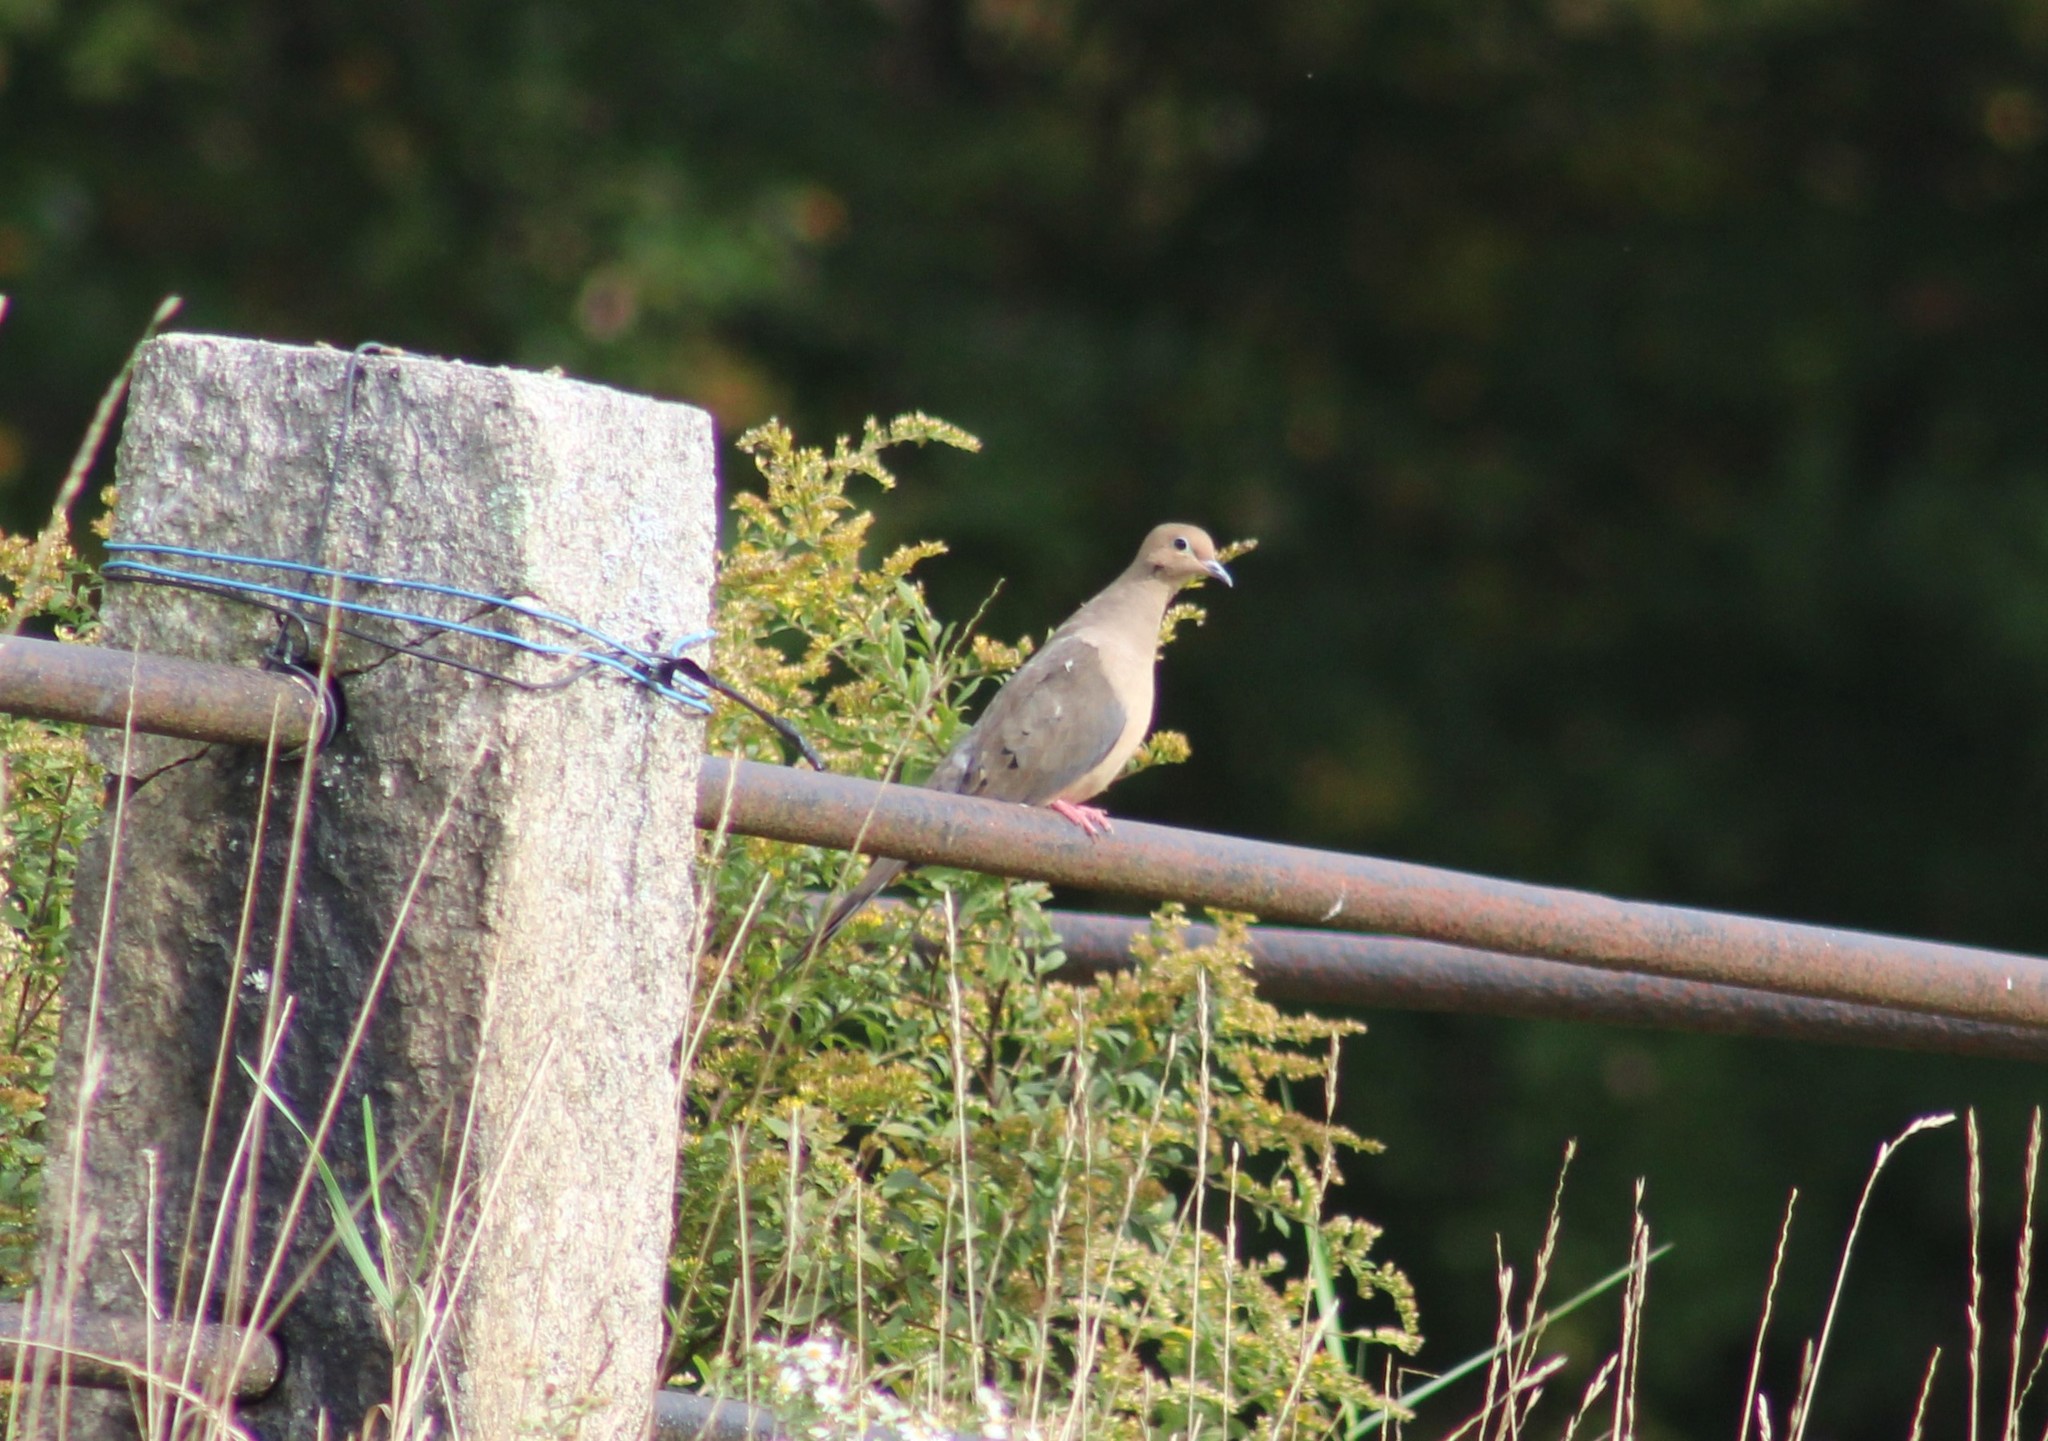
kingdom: Animalia
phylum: Chordata
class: Aves
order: Columbiformes
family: Columbidae
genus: Zenaida
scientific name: Zenaida macroura
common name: Mourning dove
